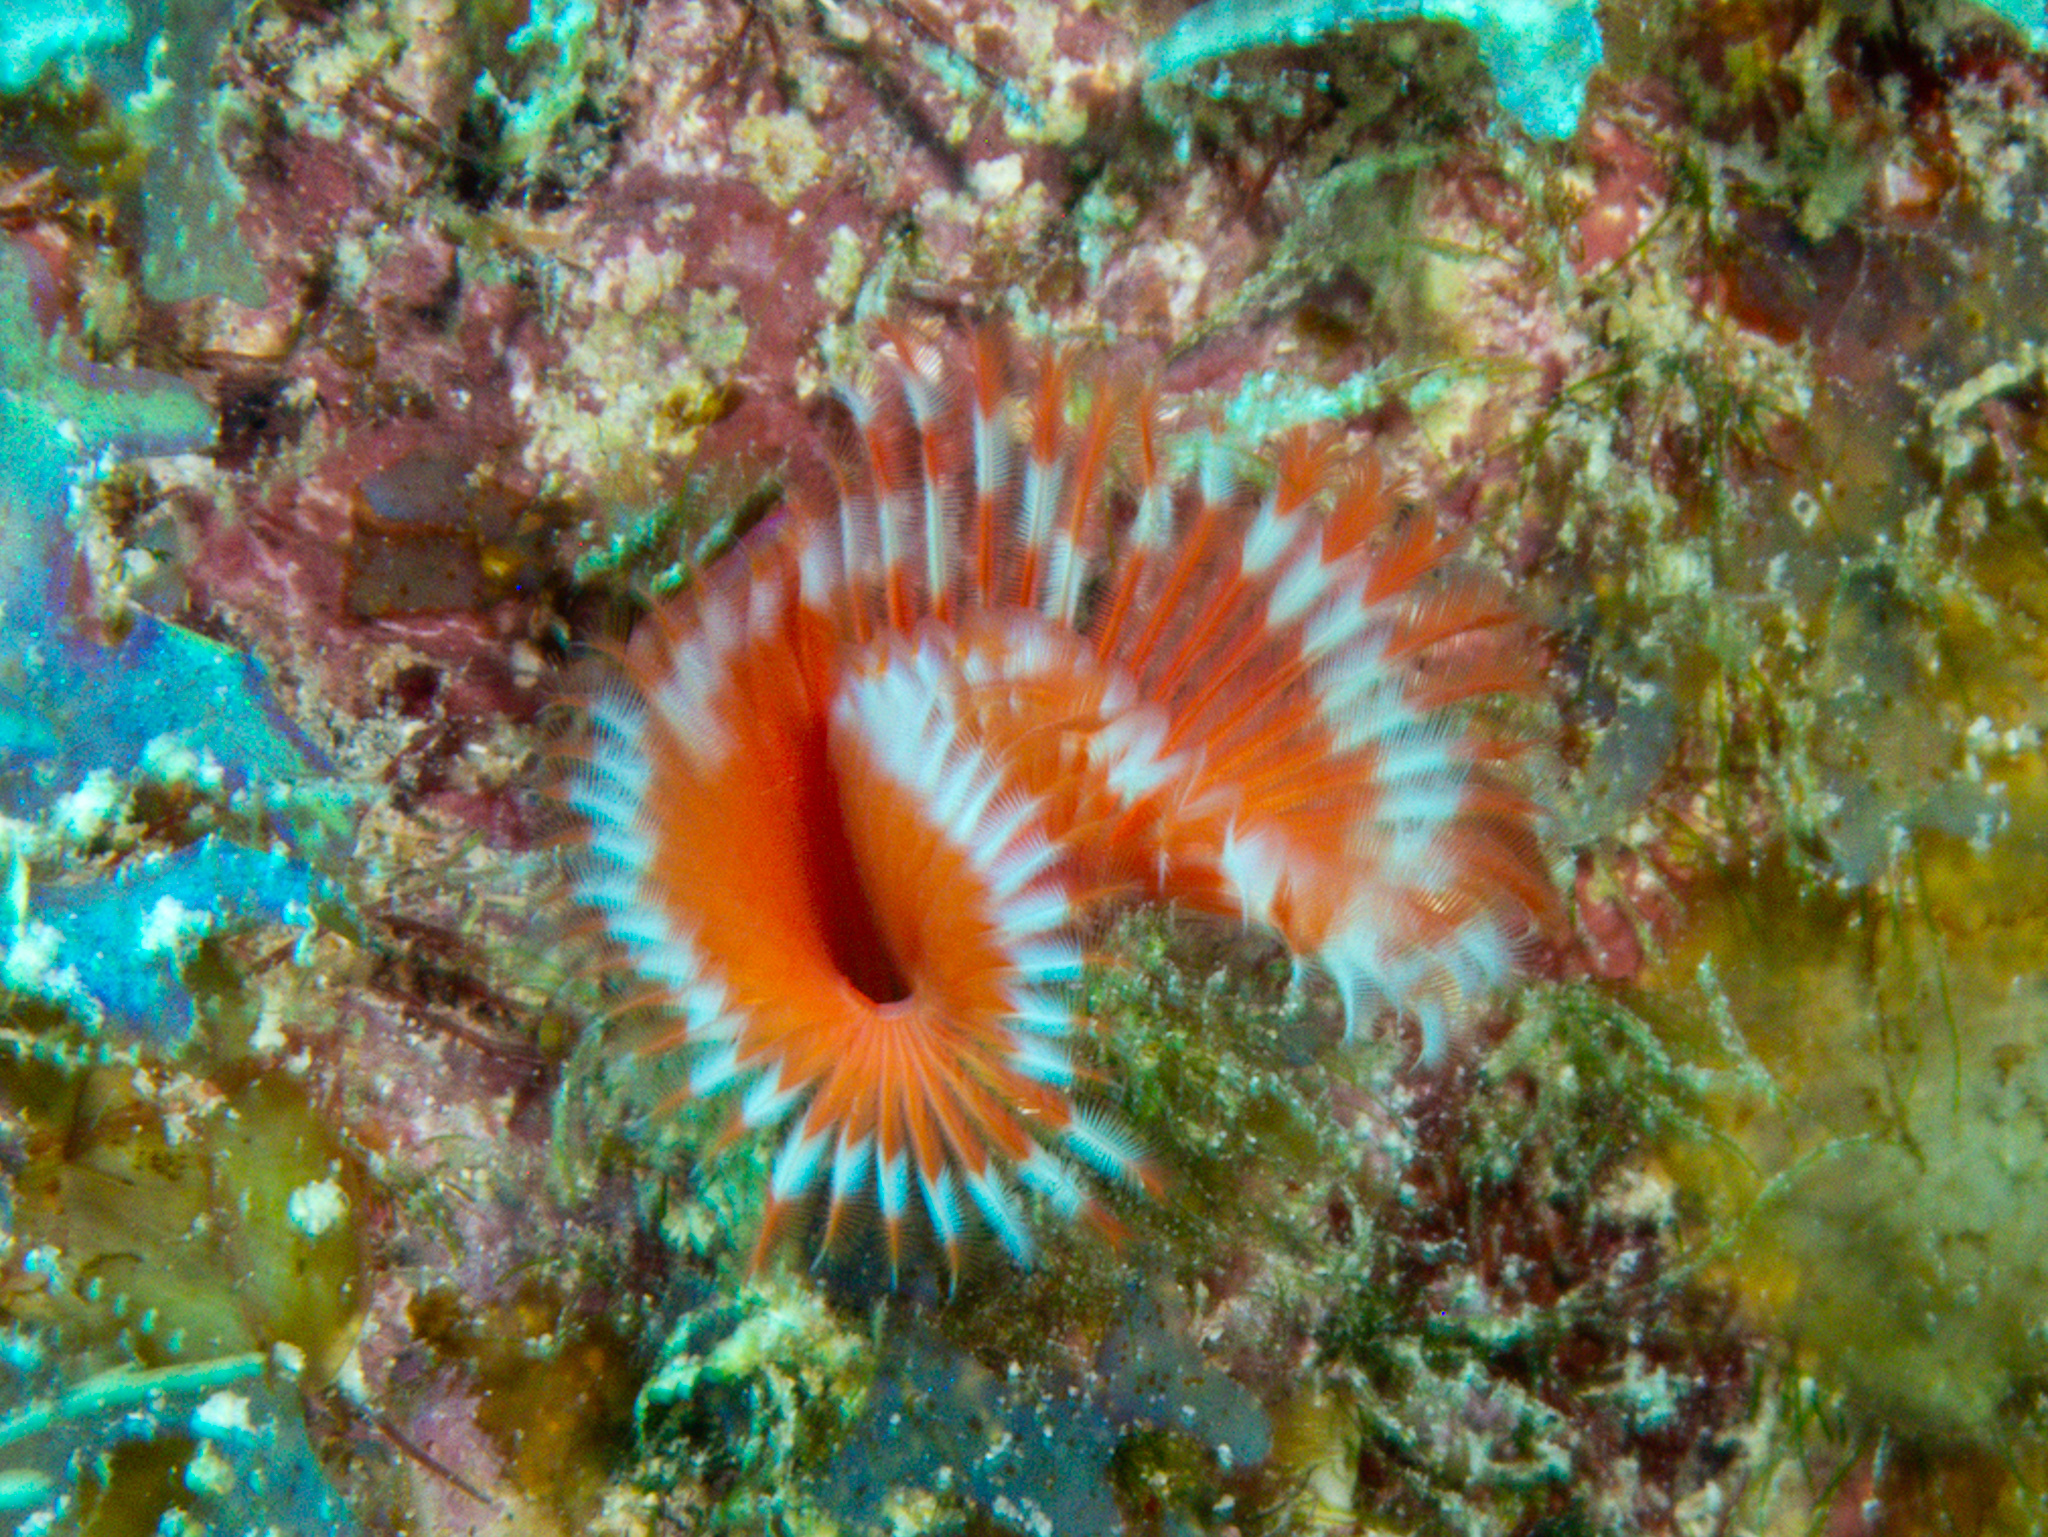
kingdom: Animalia
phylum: Annelida
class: Polychaeta
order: Sabellida
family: Serpulidae
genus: Pomatostegus
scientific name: Pomatostegus stellatus
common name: Star tubeworm
